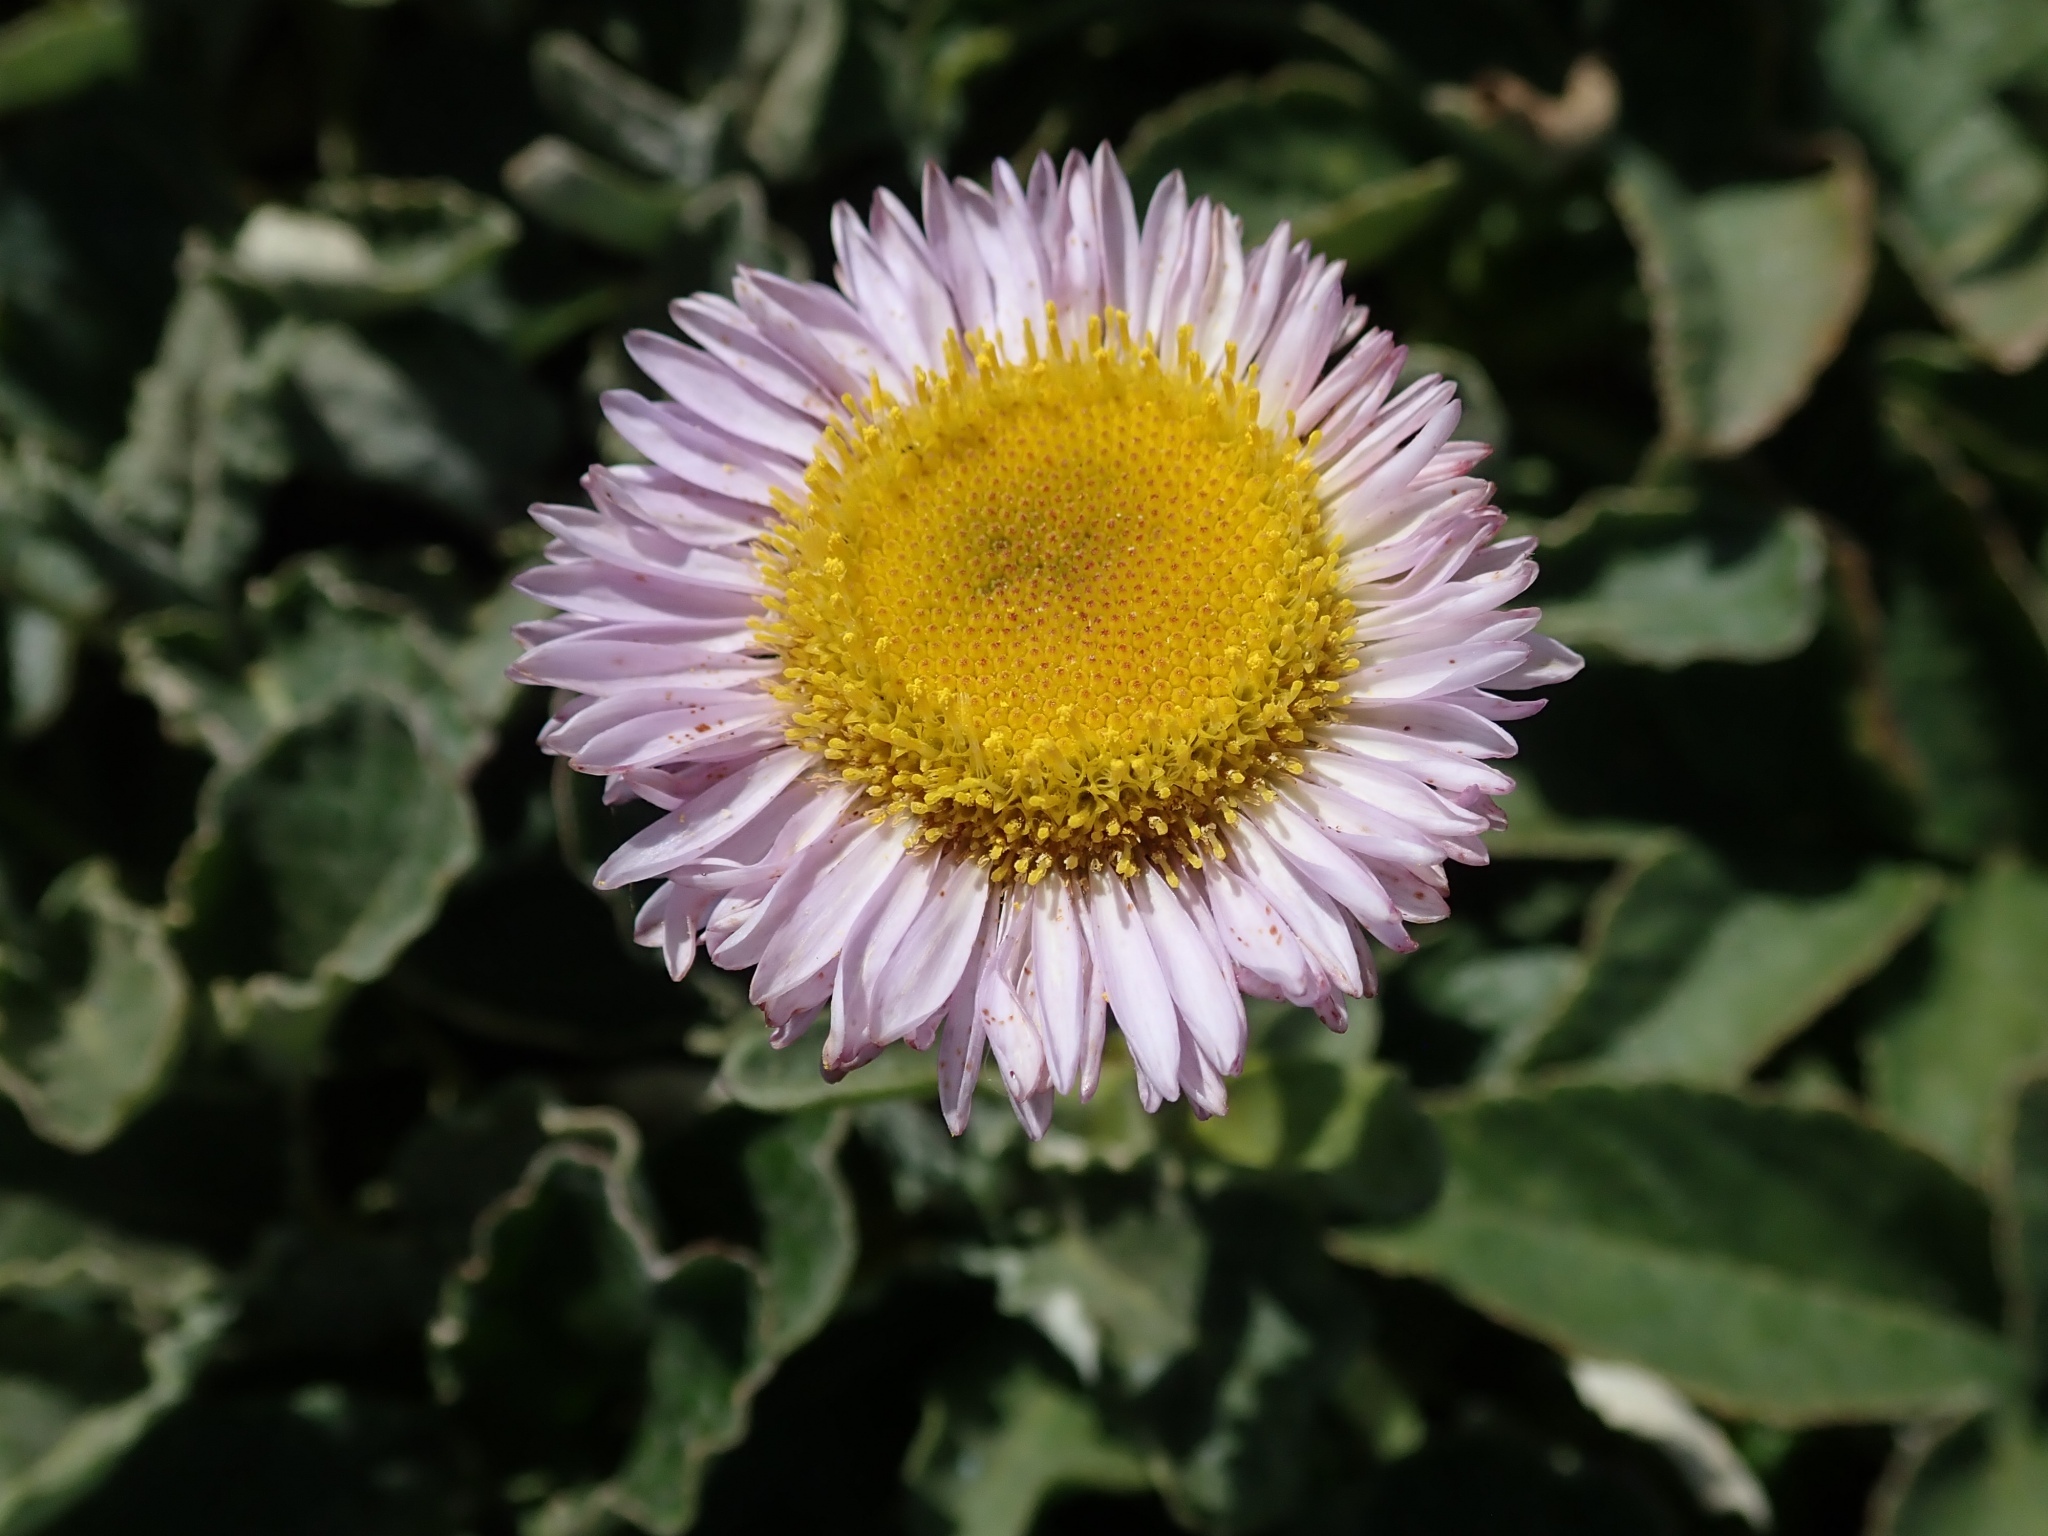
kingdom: Plantae
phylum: Tracheophyta
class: Magnoliopsida
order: Asterales
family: Asteraceae
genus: Erigeron
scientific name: Erigeron glaucus
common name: Seaside daisy
